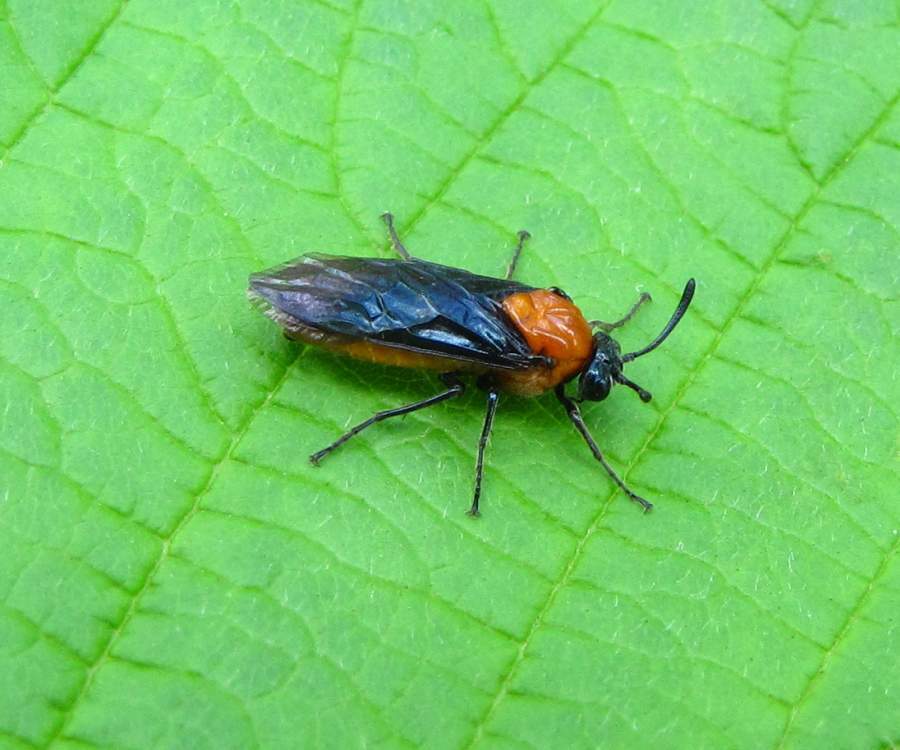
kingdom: Animalia
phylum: Arthropoda
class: Insecta
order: Hymenoptera
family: Argidae
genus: Arge
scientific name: Arge pectoralis
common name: Birch sawfly
